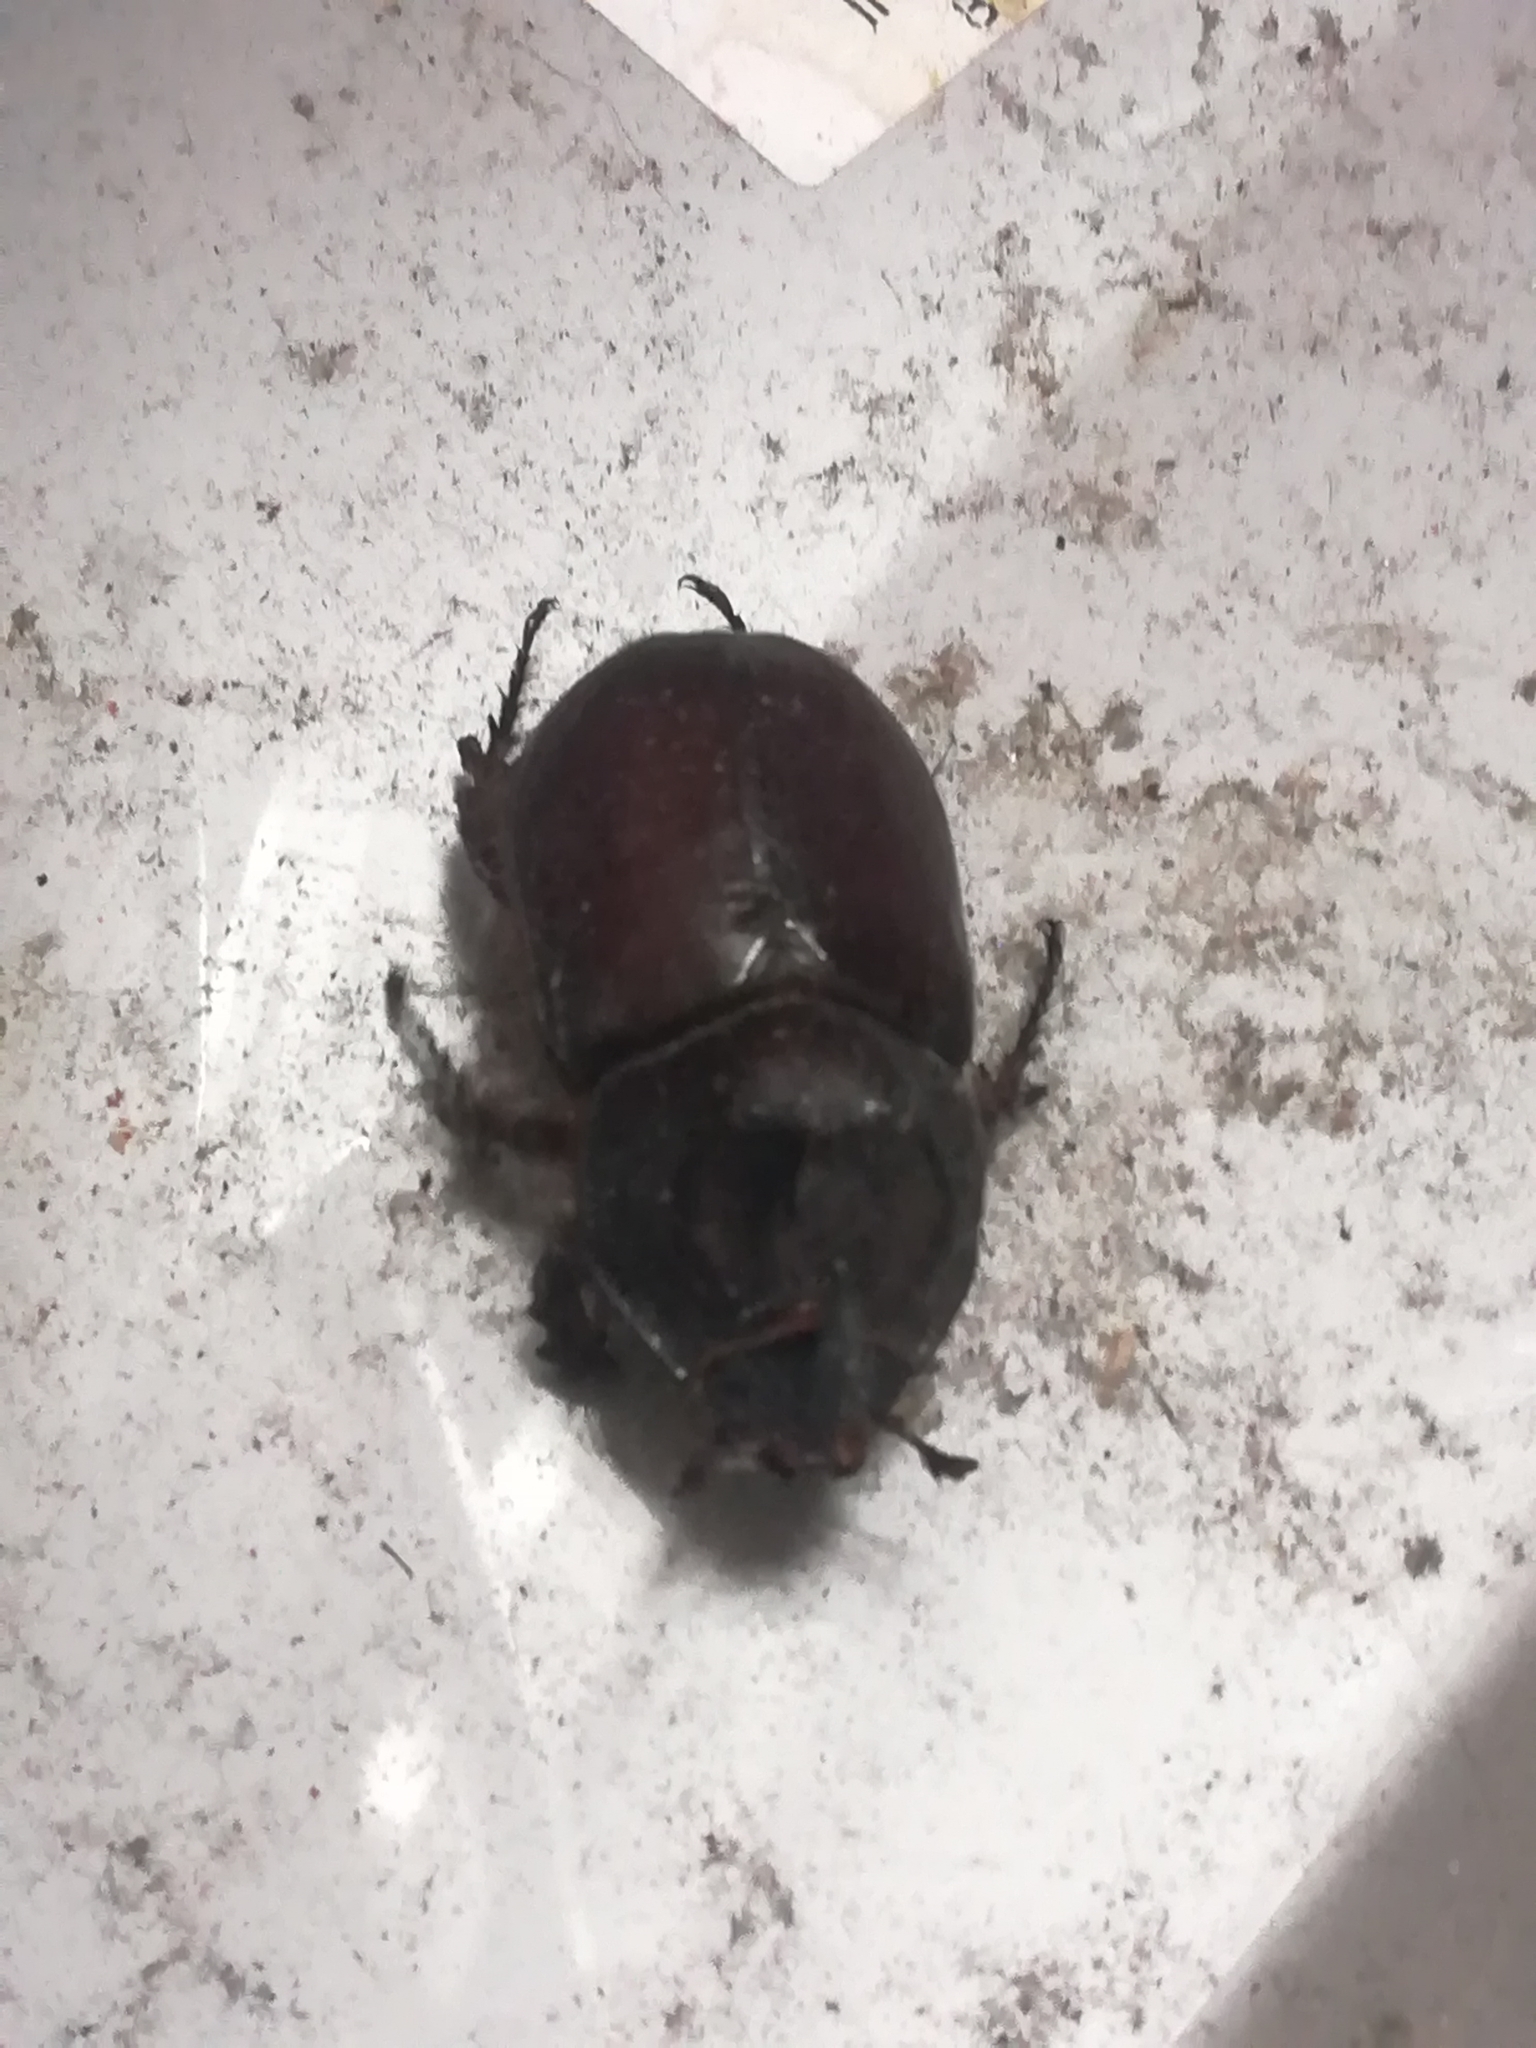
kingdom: Animalia
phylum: Arthropoda
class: Insecta
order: Coleoptera
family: Scarabaeidae
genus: Oryctes
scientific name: Oryctes nasicornis
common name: European rhinoceros beetle
